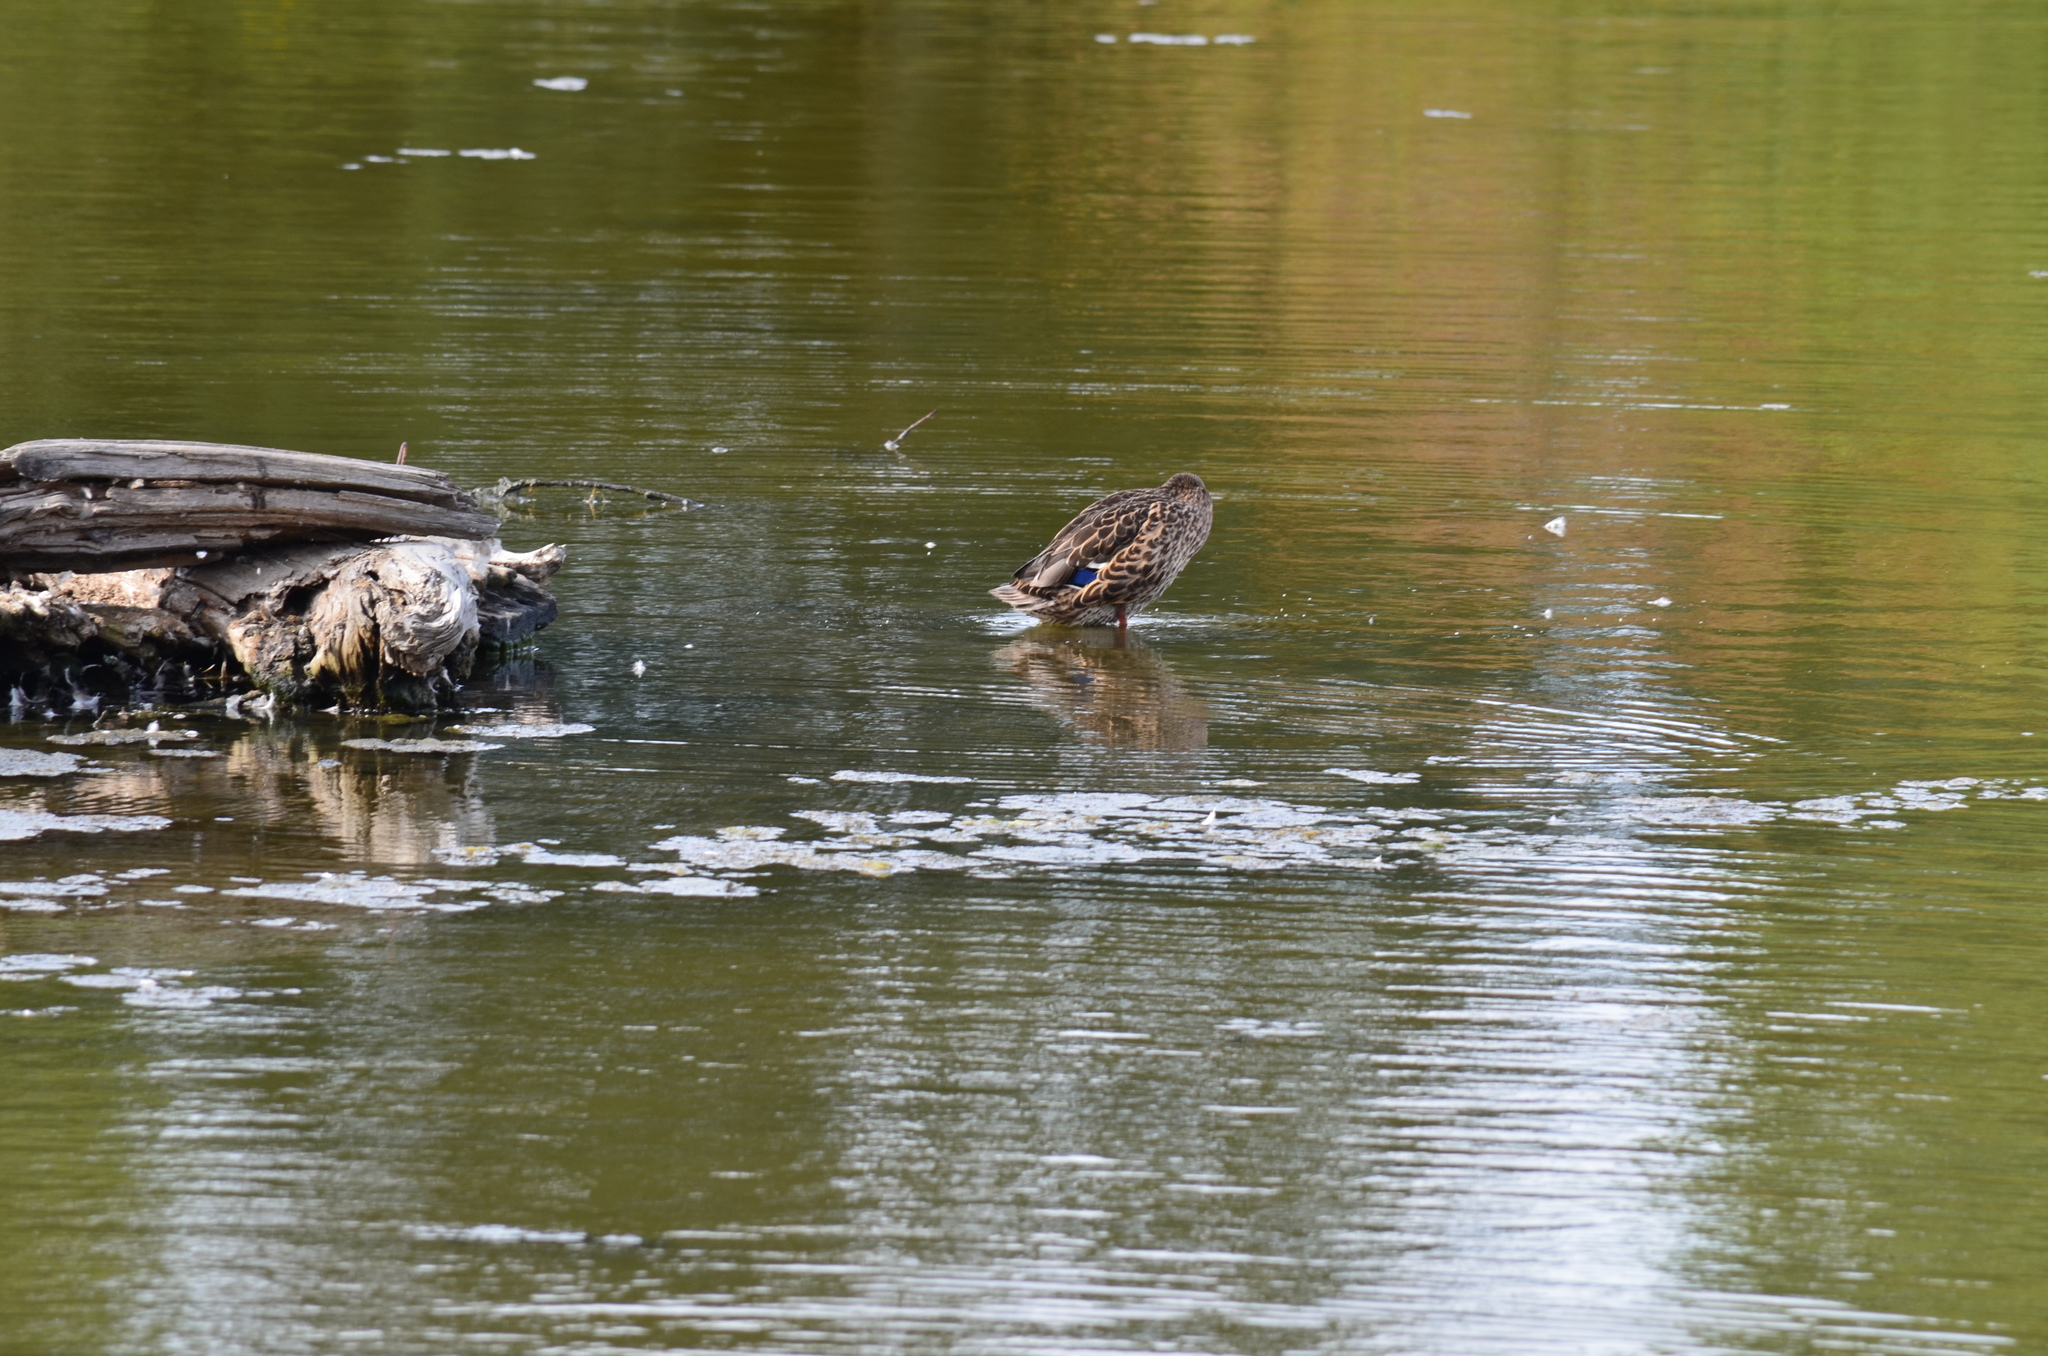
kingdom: Animalia
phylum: Chordata
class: Aves
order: Anseriformes
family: Anatidae
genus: Anas
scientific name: Anas platyrhynchos
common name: Mallard
